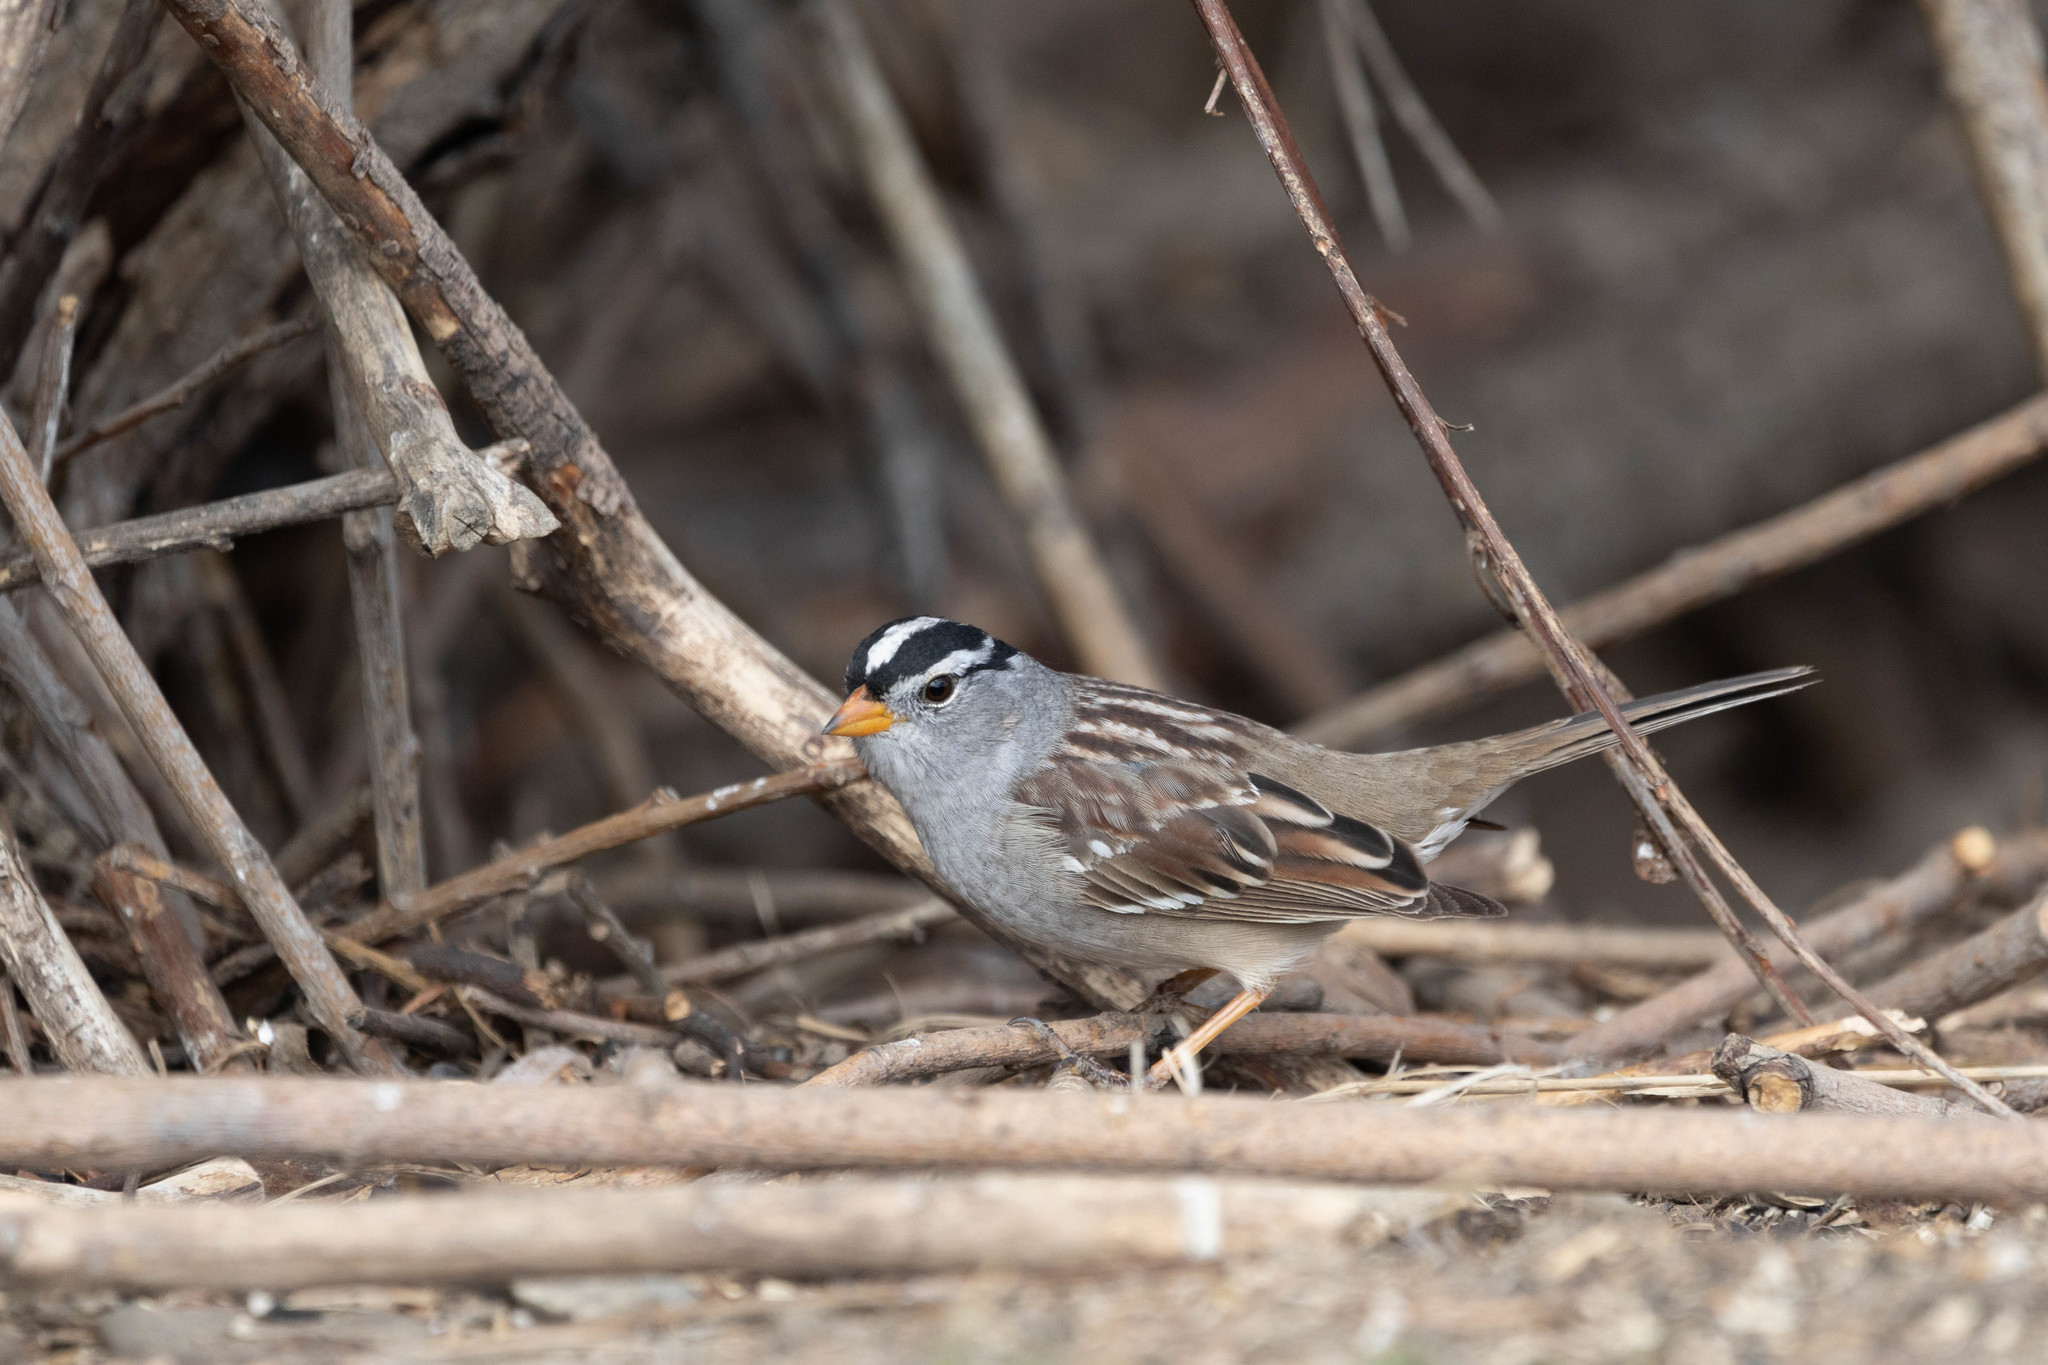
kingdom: Animalia
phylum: Chordata
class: Aves
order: Passeriformes
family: Passerellidae
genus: Zonotrichia
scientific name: Zonotrichia leucophrys
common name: White-crowned sparrow
